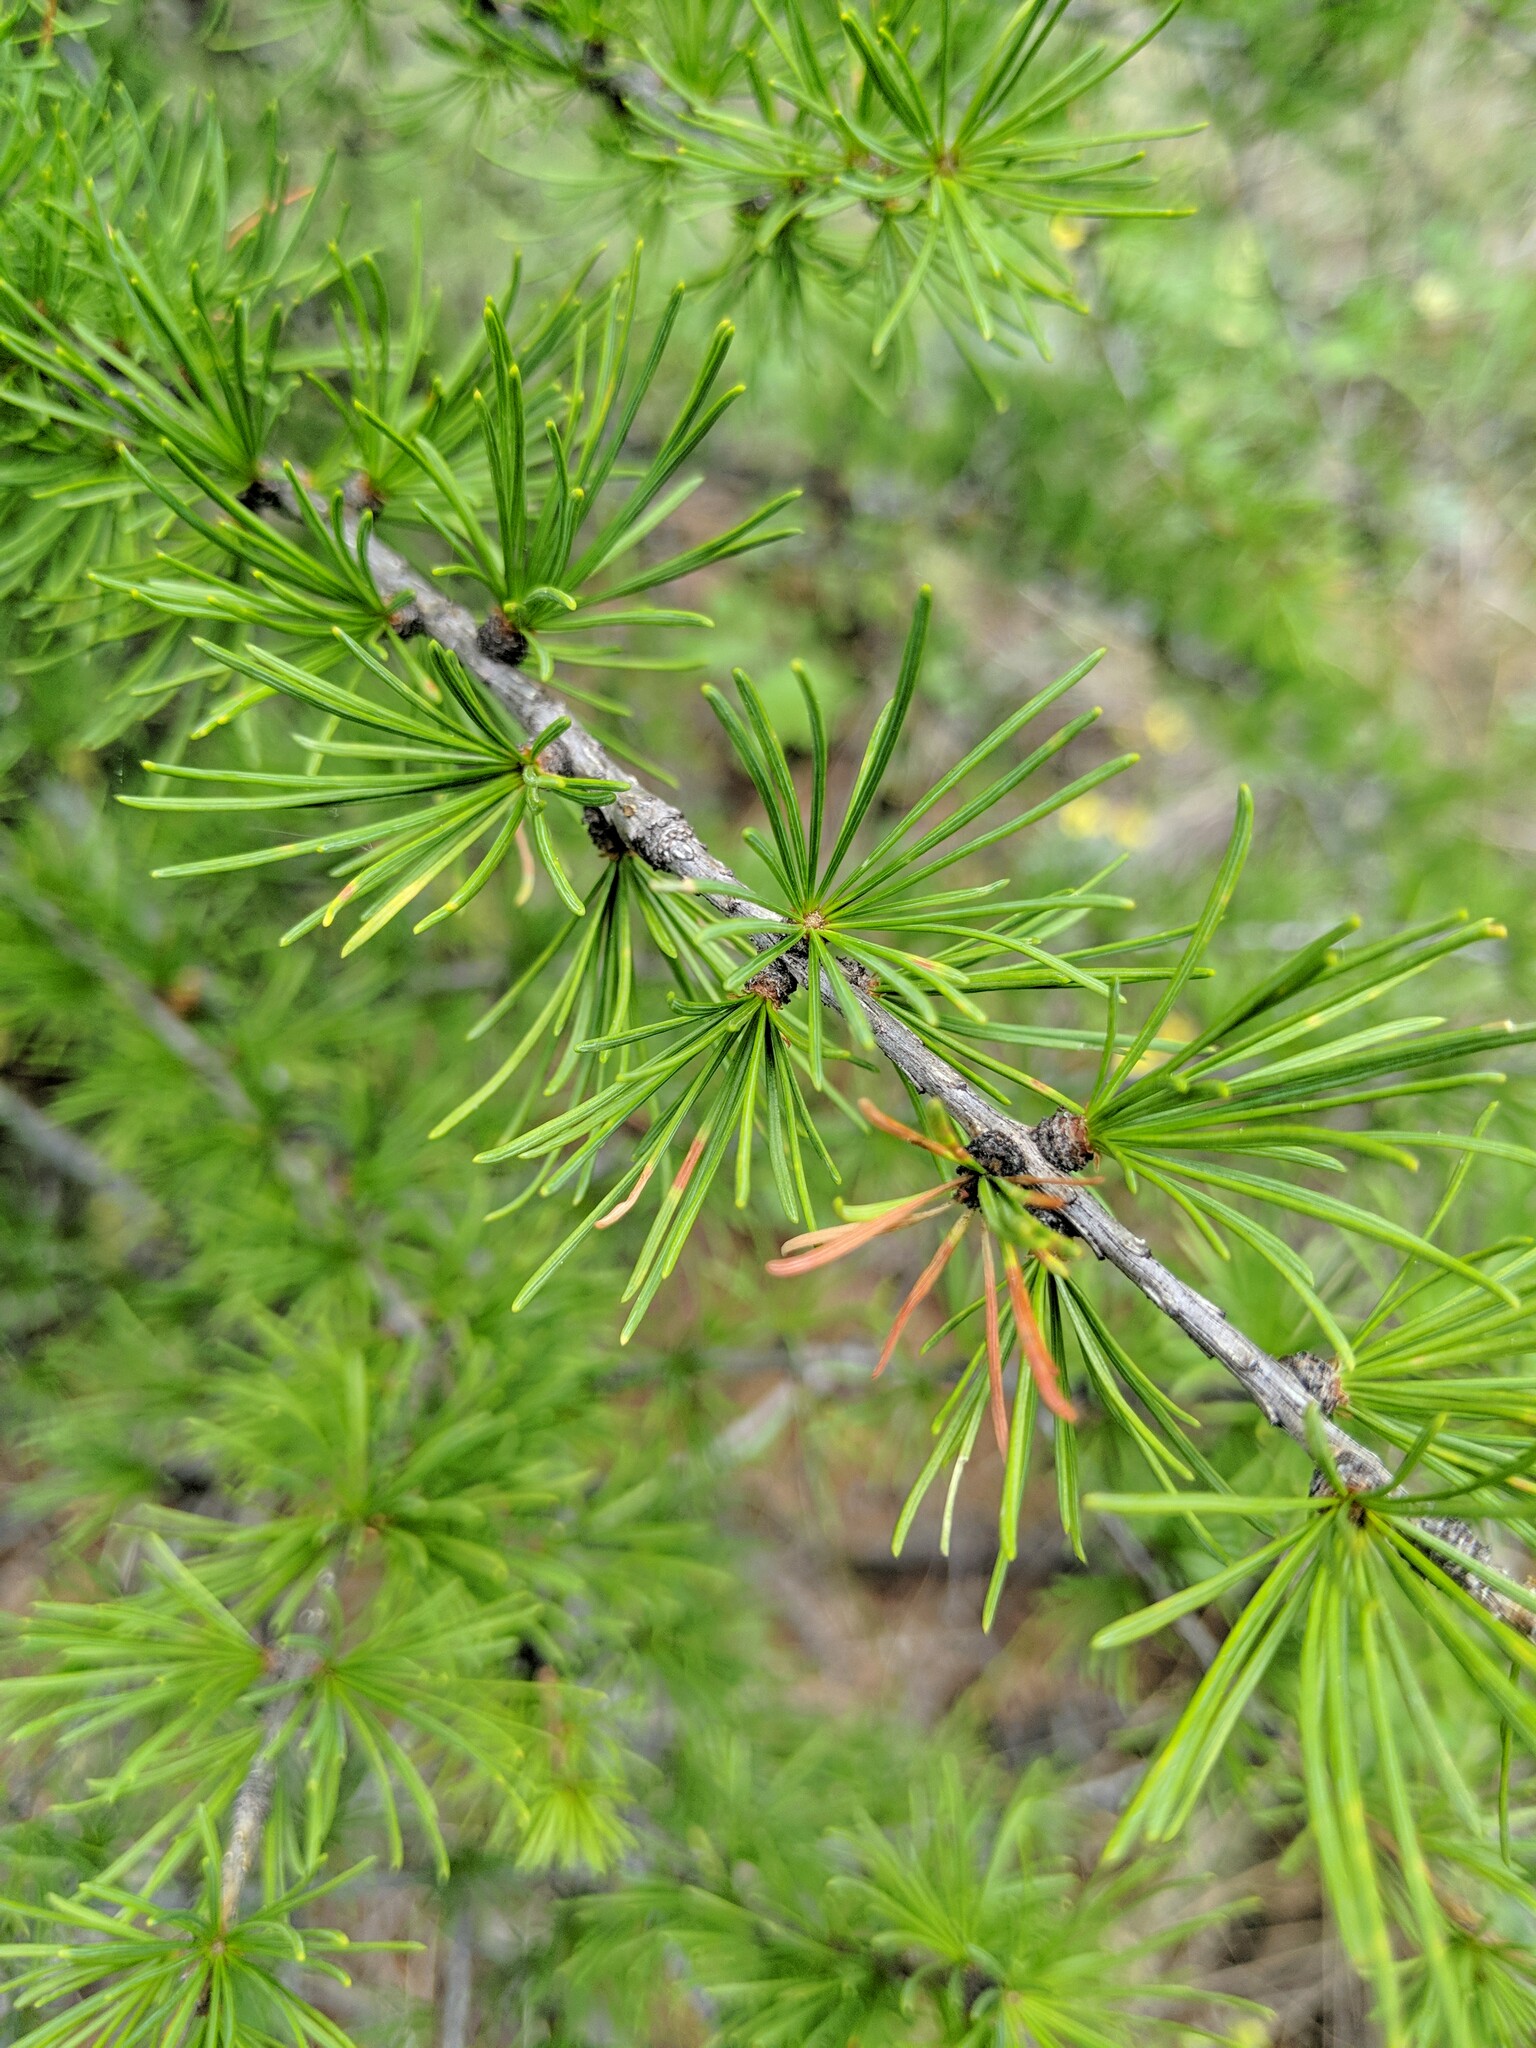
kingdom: Plantae
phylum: Tracheophyta
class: Pinopsida
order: Pinales
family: Pinaceae
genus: Larix
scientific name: Larix occidentalis
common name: Western larch
